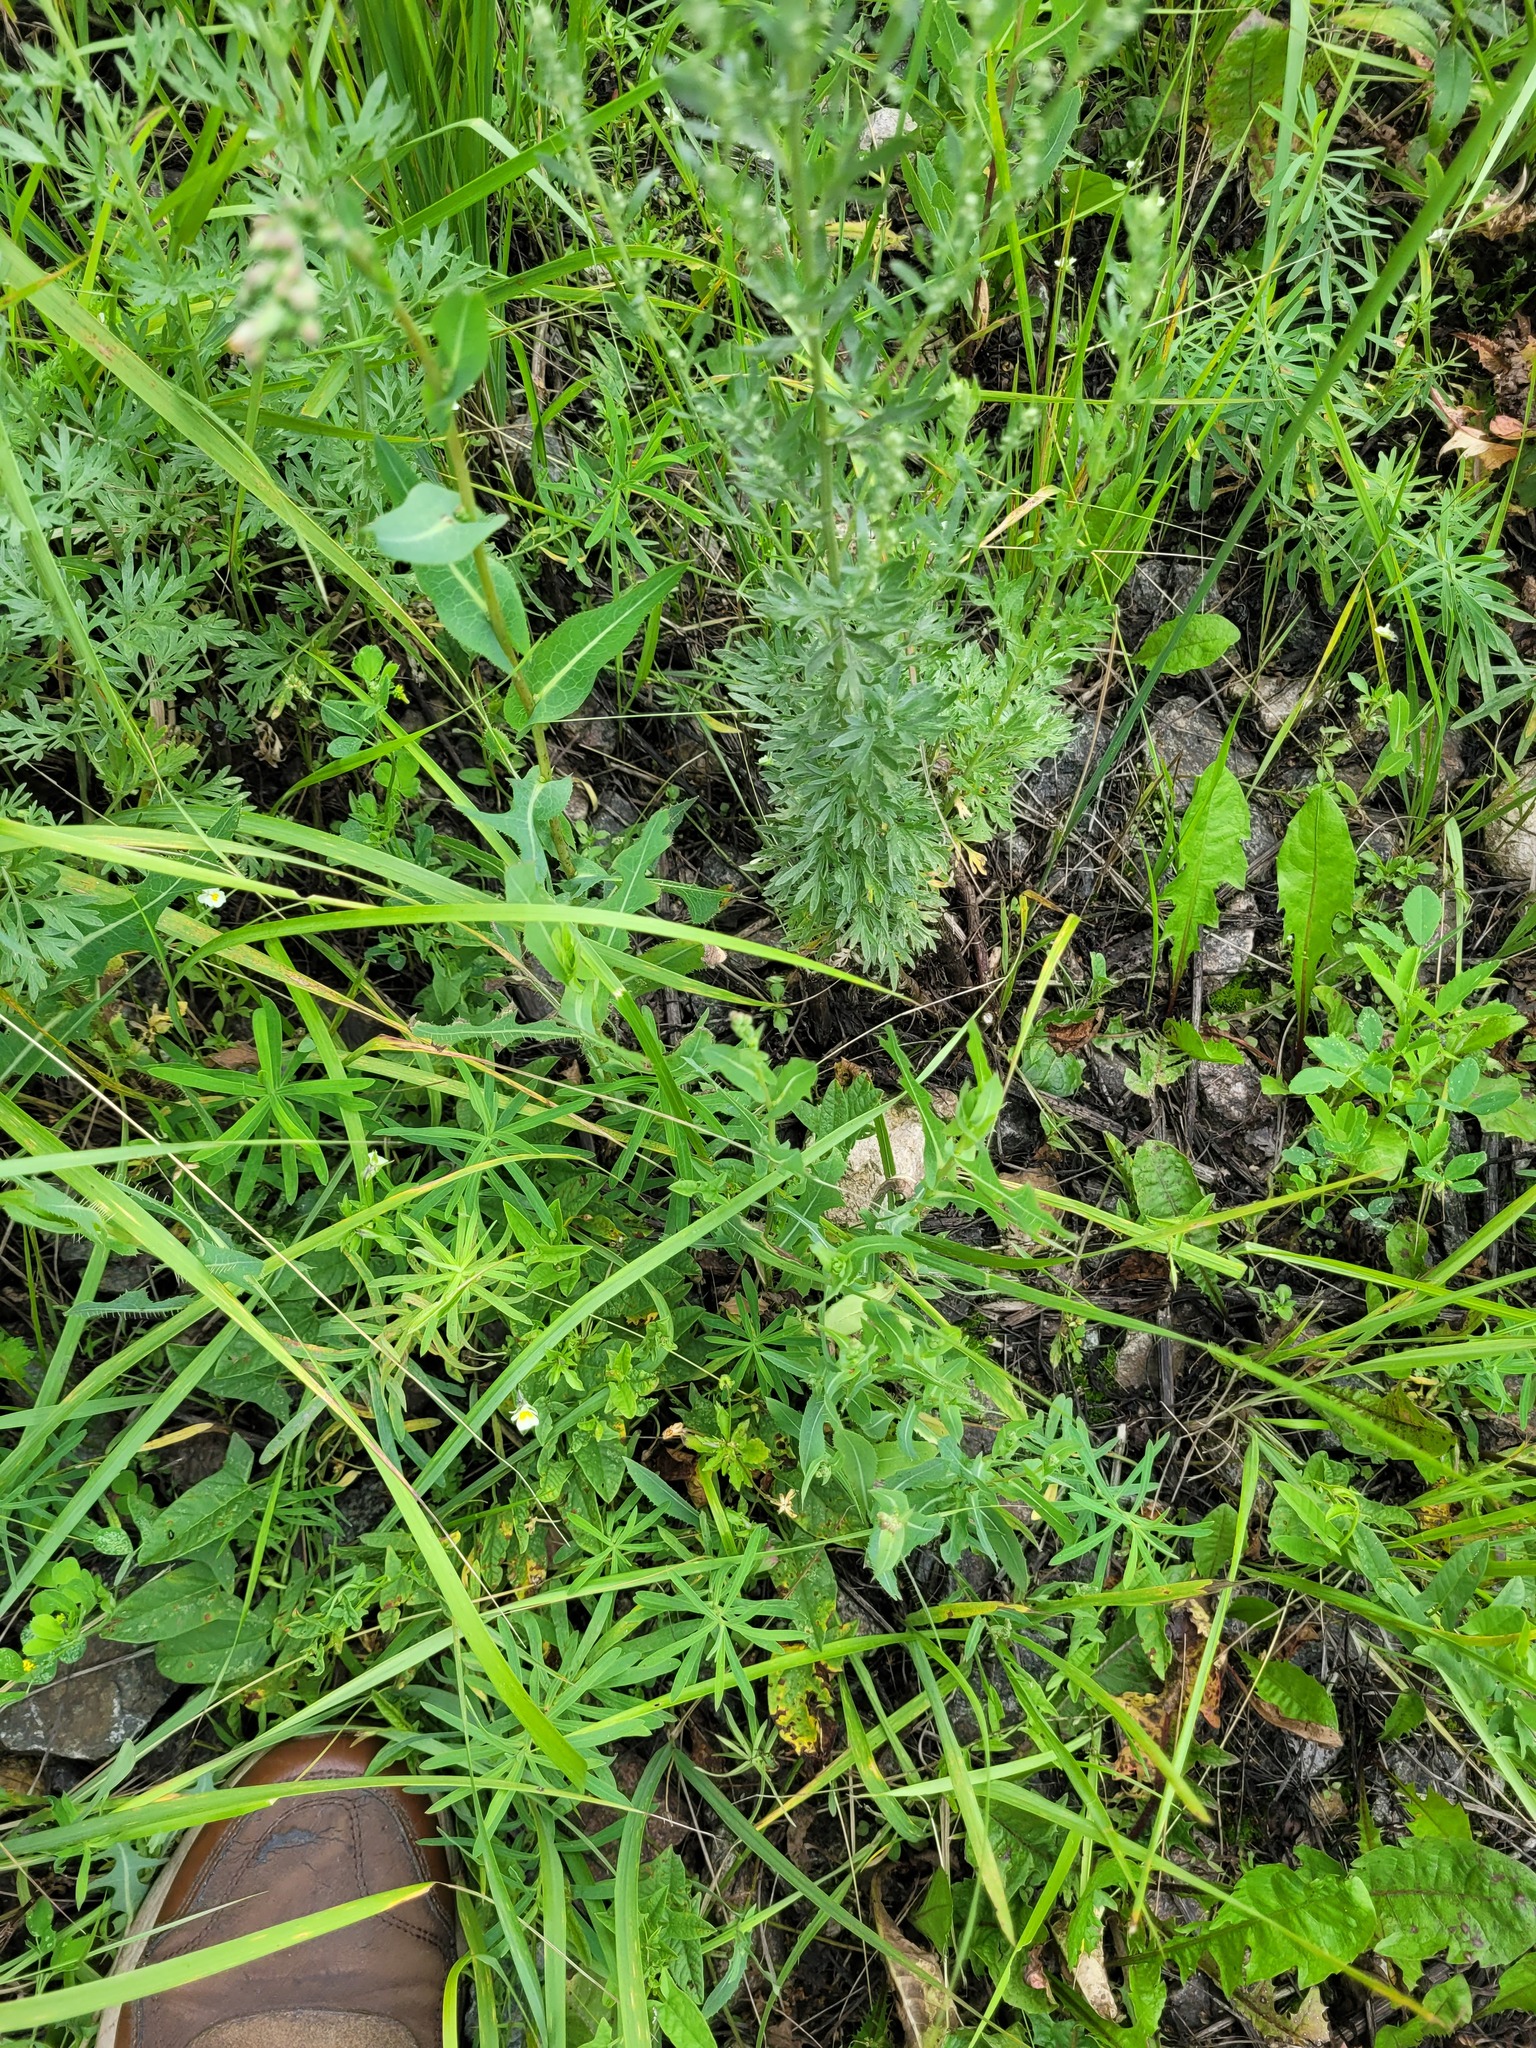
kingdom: Plantae
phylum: Tracheophyta
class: Magnoliopsida
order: Asterales
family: Asteraceae
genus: Lactuca
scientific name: Lactuca serriola
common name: Prickly lettuce
